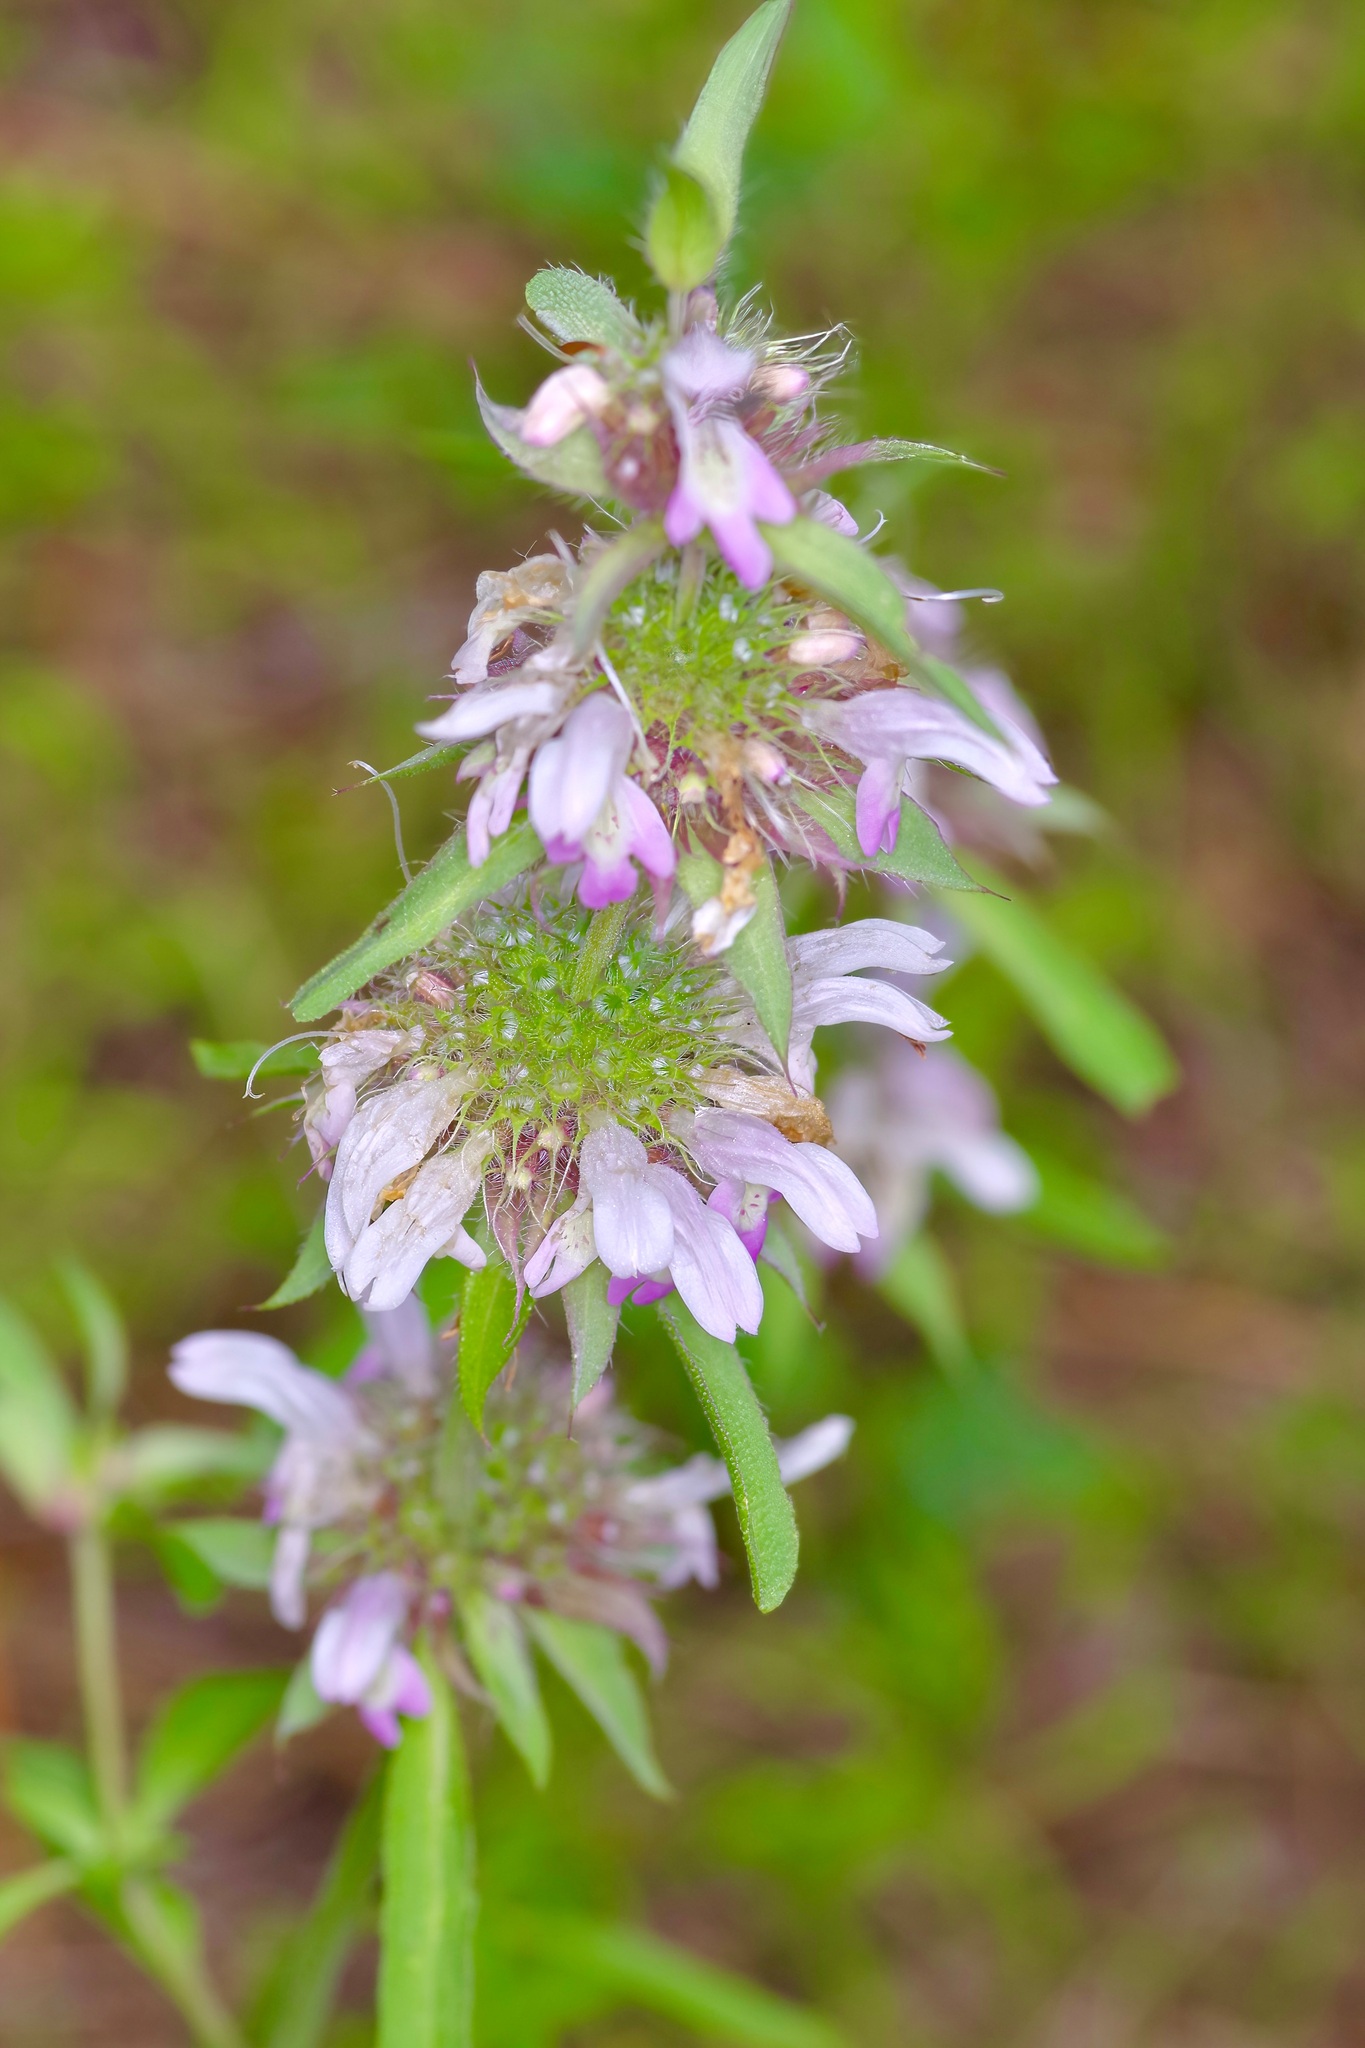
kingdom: Plantae
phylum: Tracheophyta
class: Magnoliopsida
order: Lamiales
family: Lamiaceae
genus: Monarda
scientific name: Monarda pectinata
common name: Plains beebalm
